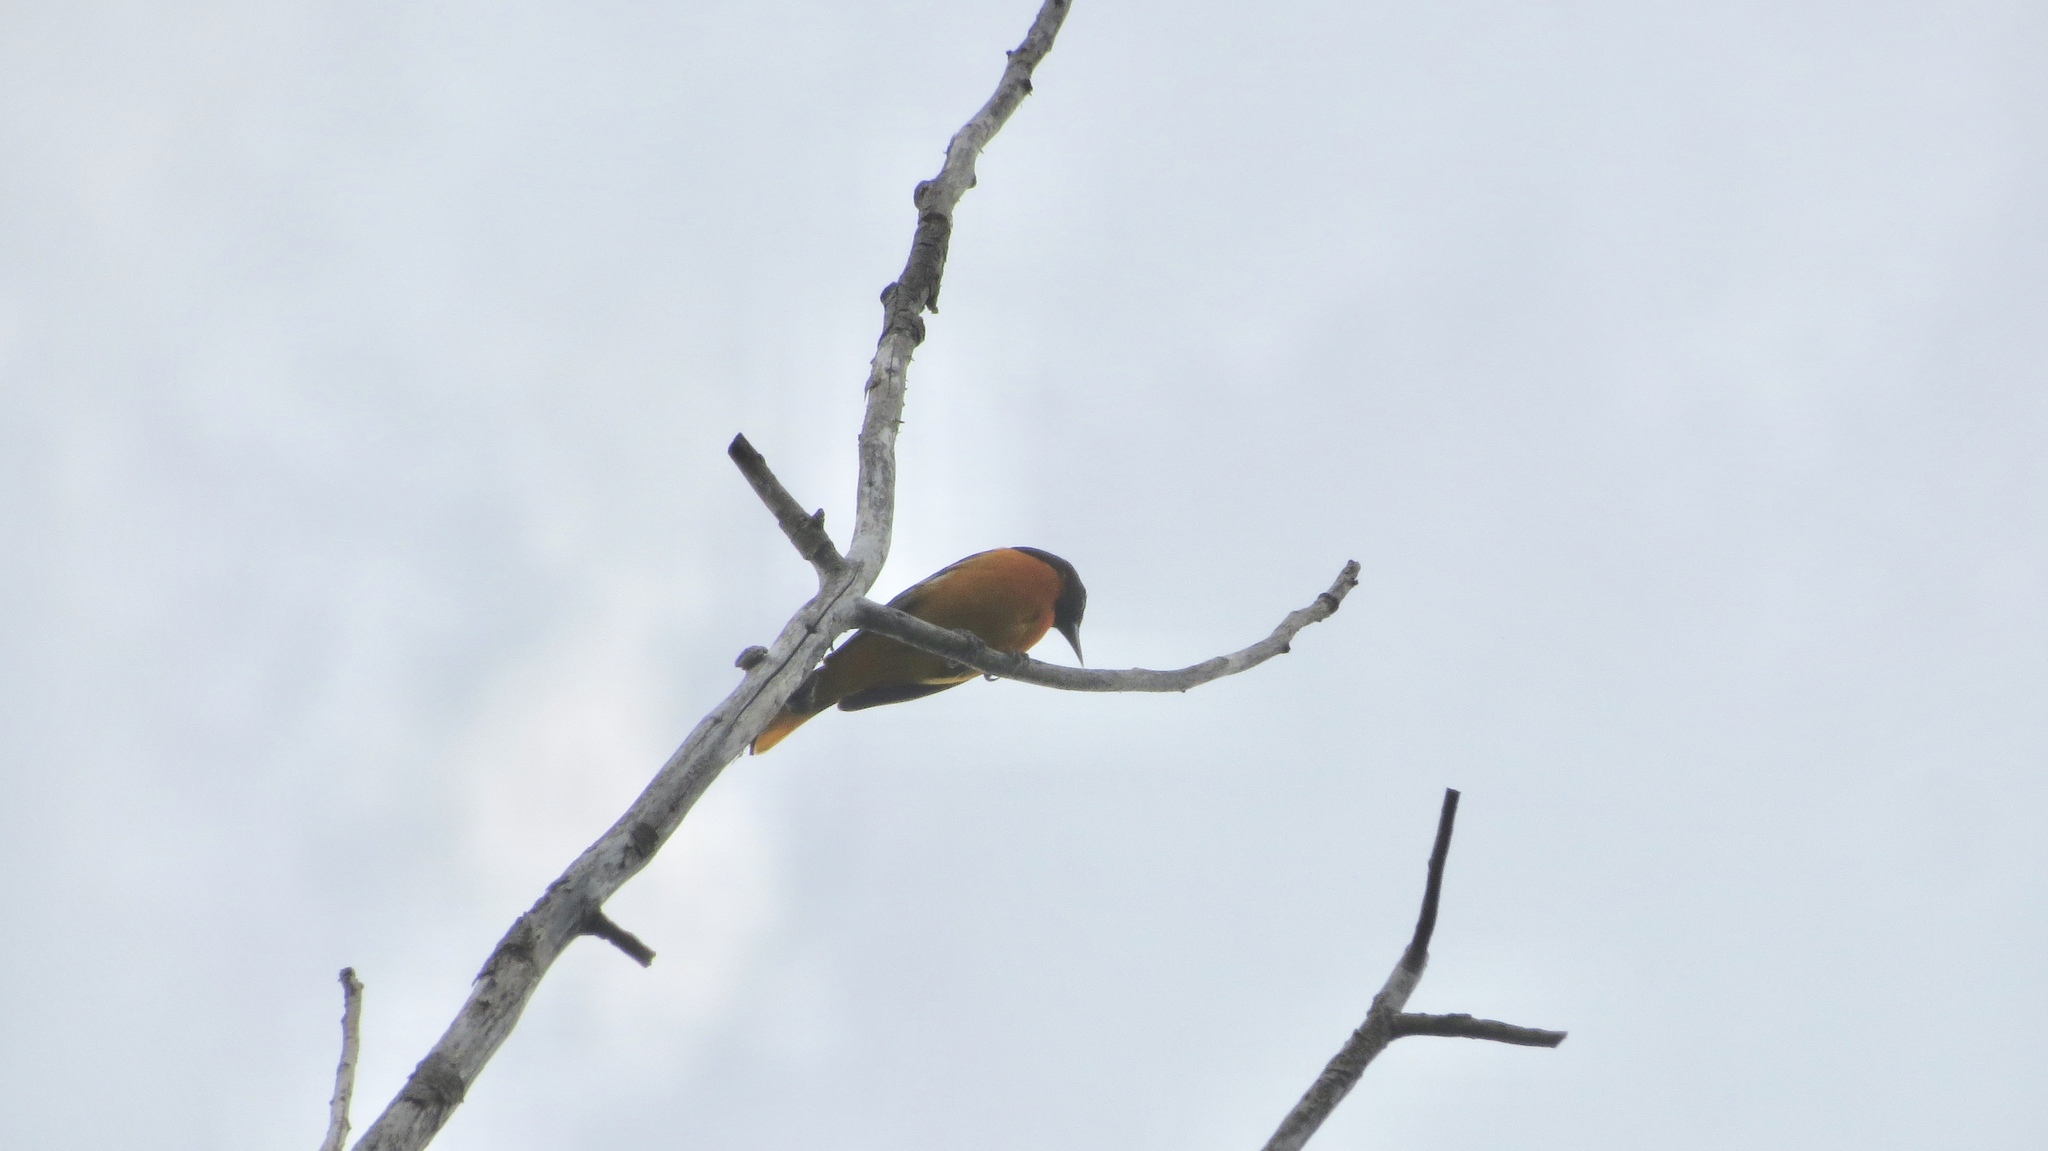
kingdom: Animalia
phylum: Chordata
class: Aves
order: Passeriformes
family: Icteridae
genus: Icterus
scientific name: Icterus galbula
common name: Baltimore oriole
